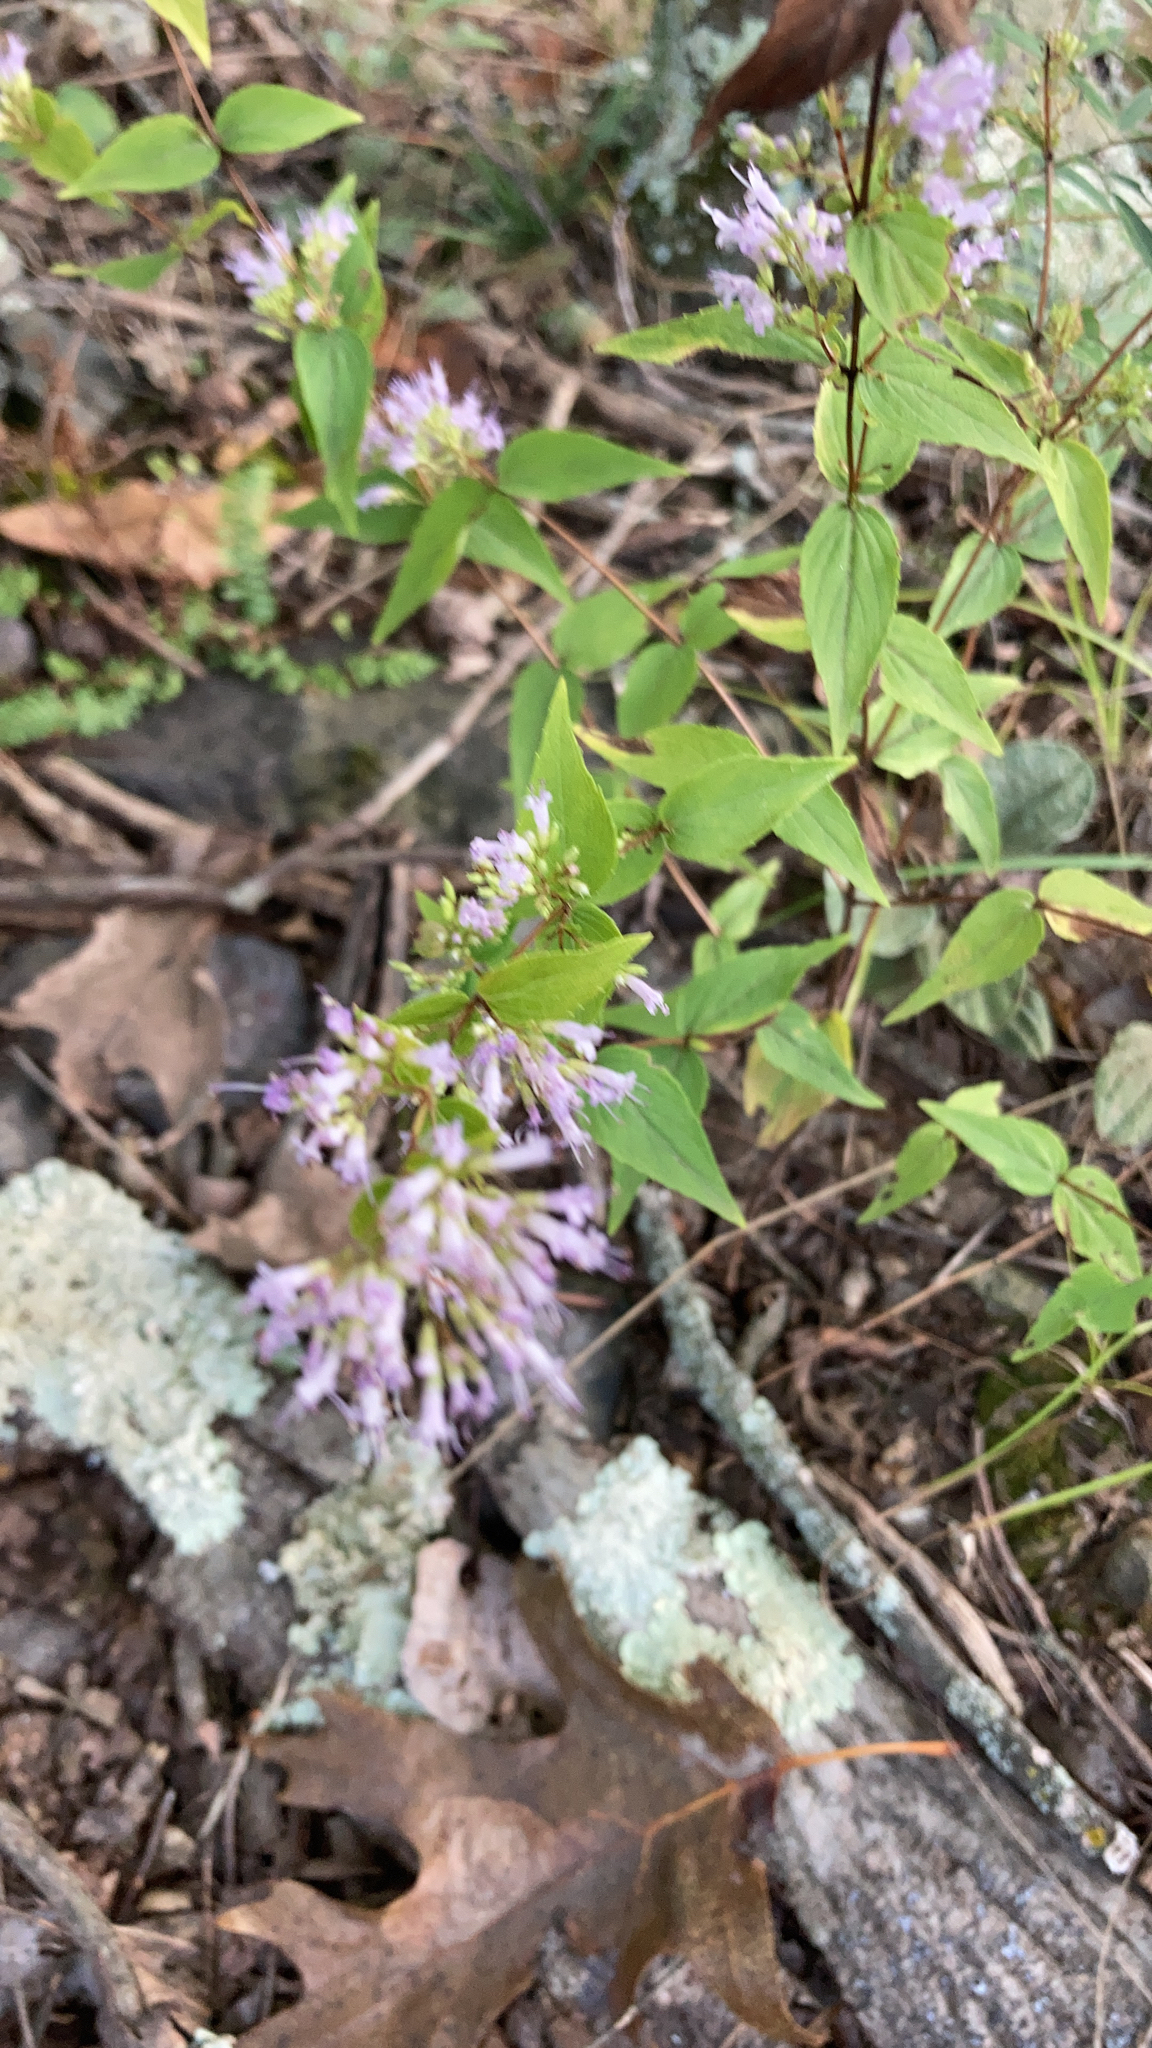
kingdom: Plantae
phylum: Tracheophyta
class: Magnoliopsida
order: Lamiales
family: Lamiaceae
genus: Cunila
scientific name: Cunila origanoides
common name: American dittany
